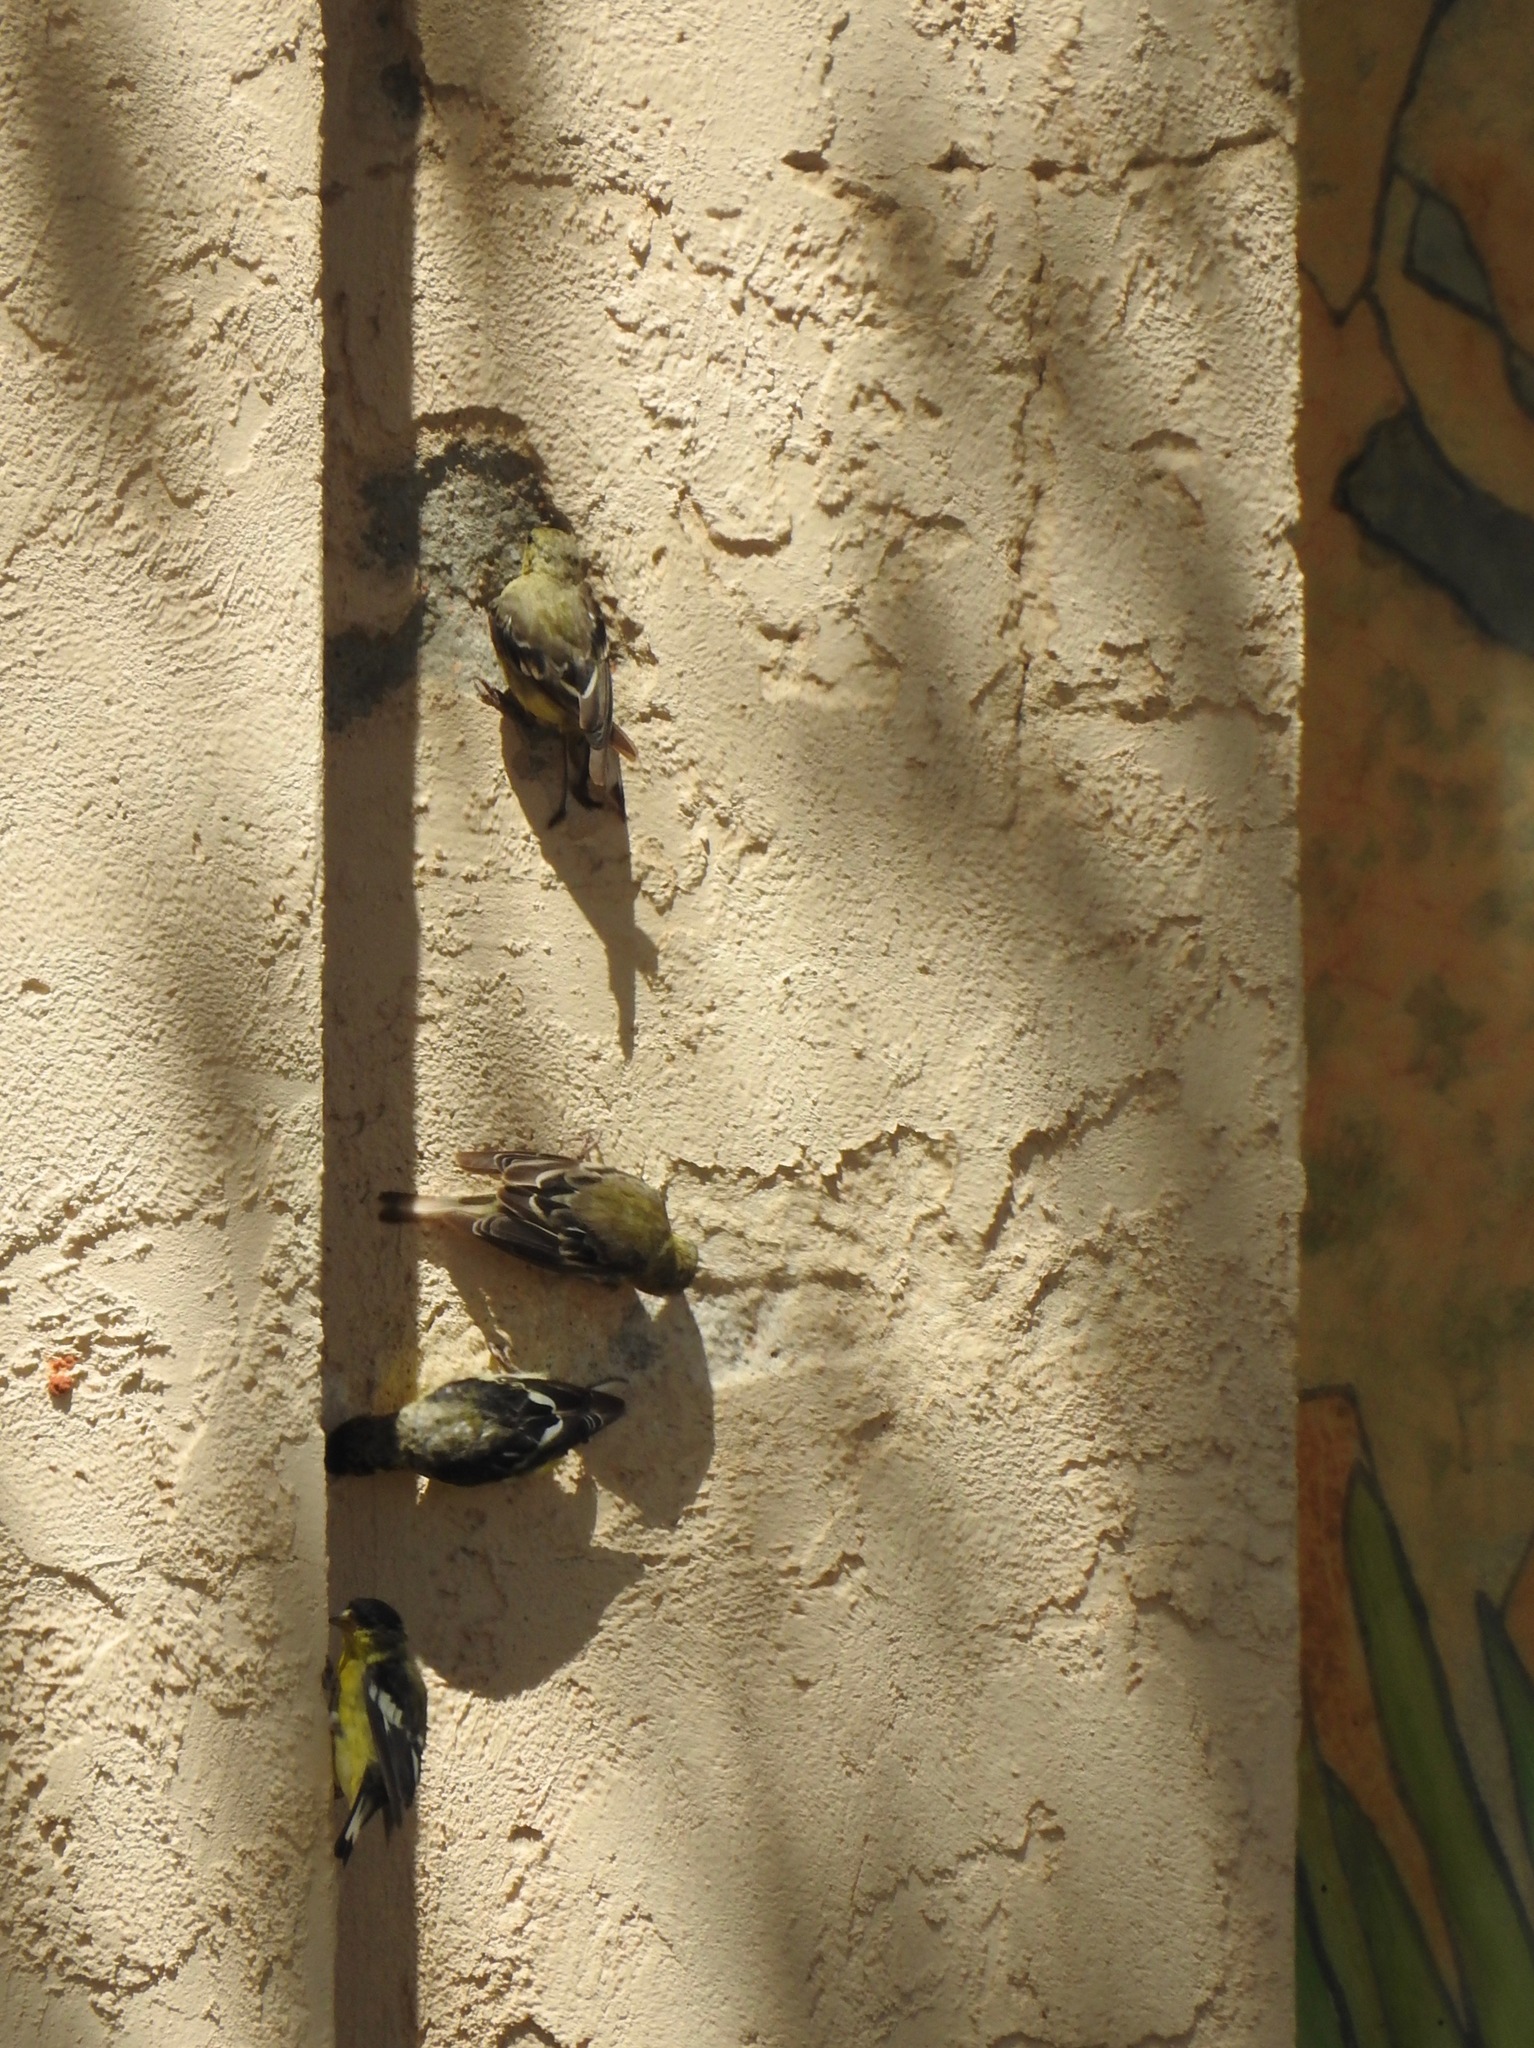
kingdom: Animalia
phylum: Chordata
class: Aves
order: Passeriformes
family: Fringillidae
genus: Spinus
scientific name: Spinus psaltria
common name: Lesser goldfinch
